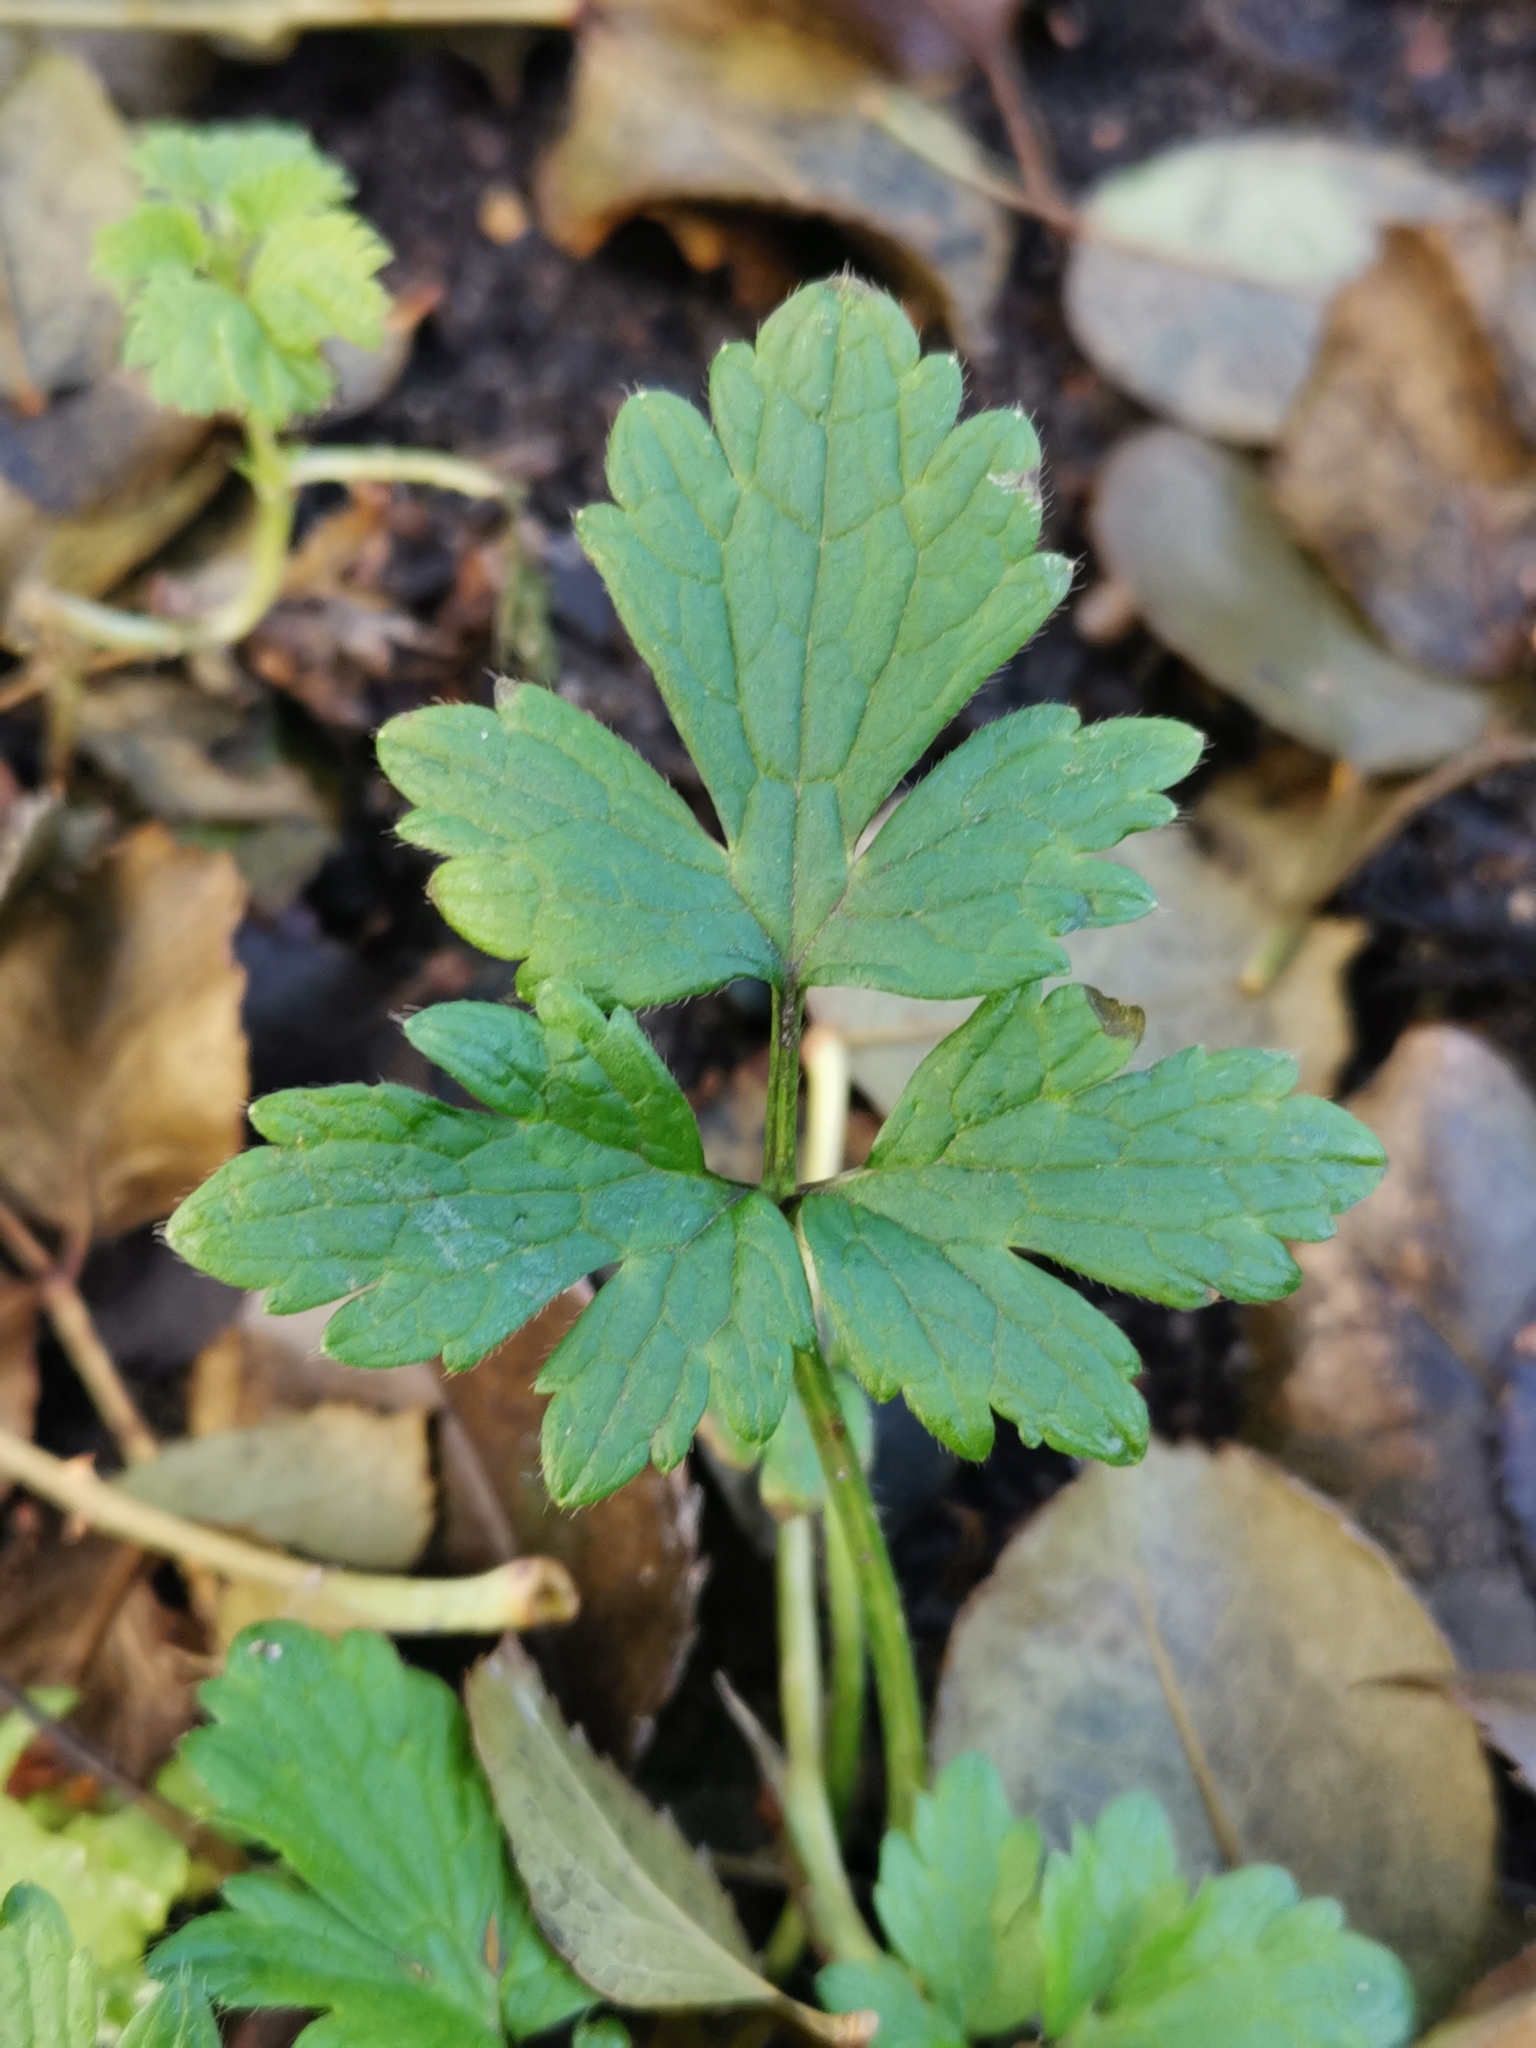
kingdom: Plantae
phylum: Tracheophyta
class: Magnoliopsida
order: Ranunculales
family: Ranunculaceae
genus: Ranunculus
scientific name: Ranunculus repens
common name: Creeping buttercup
